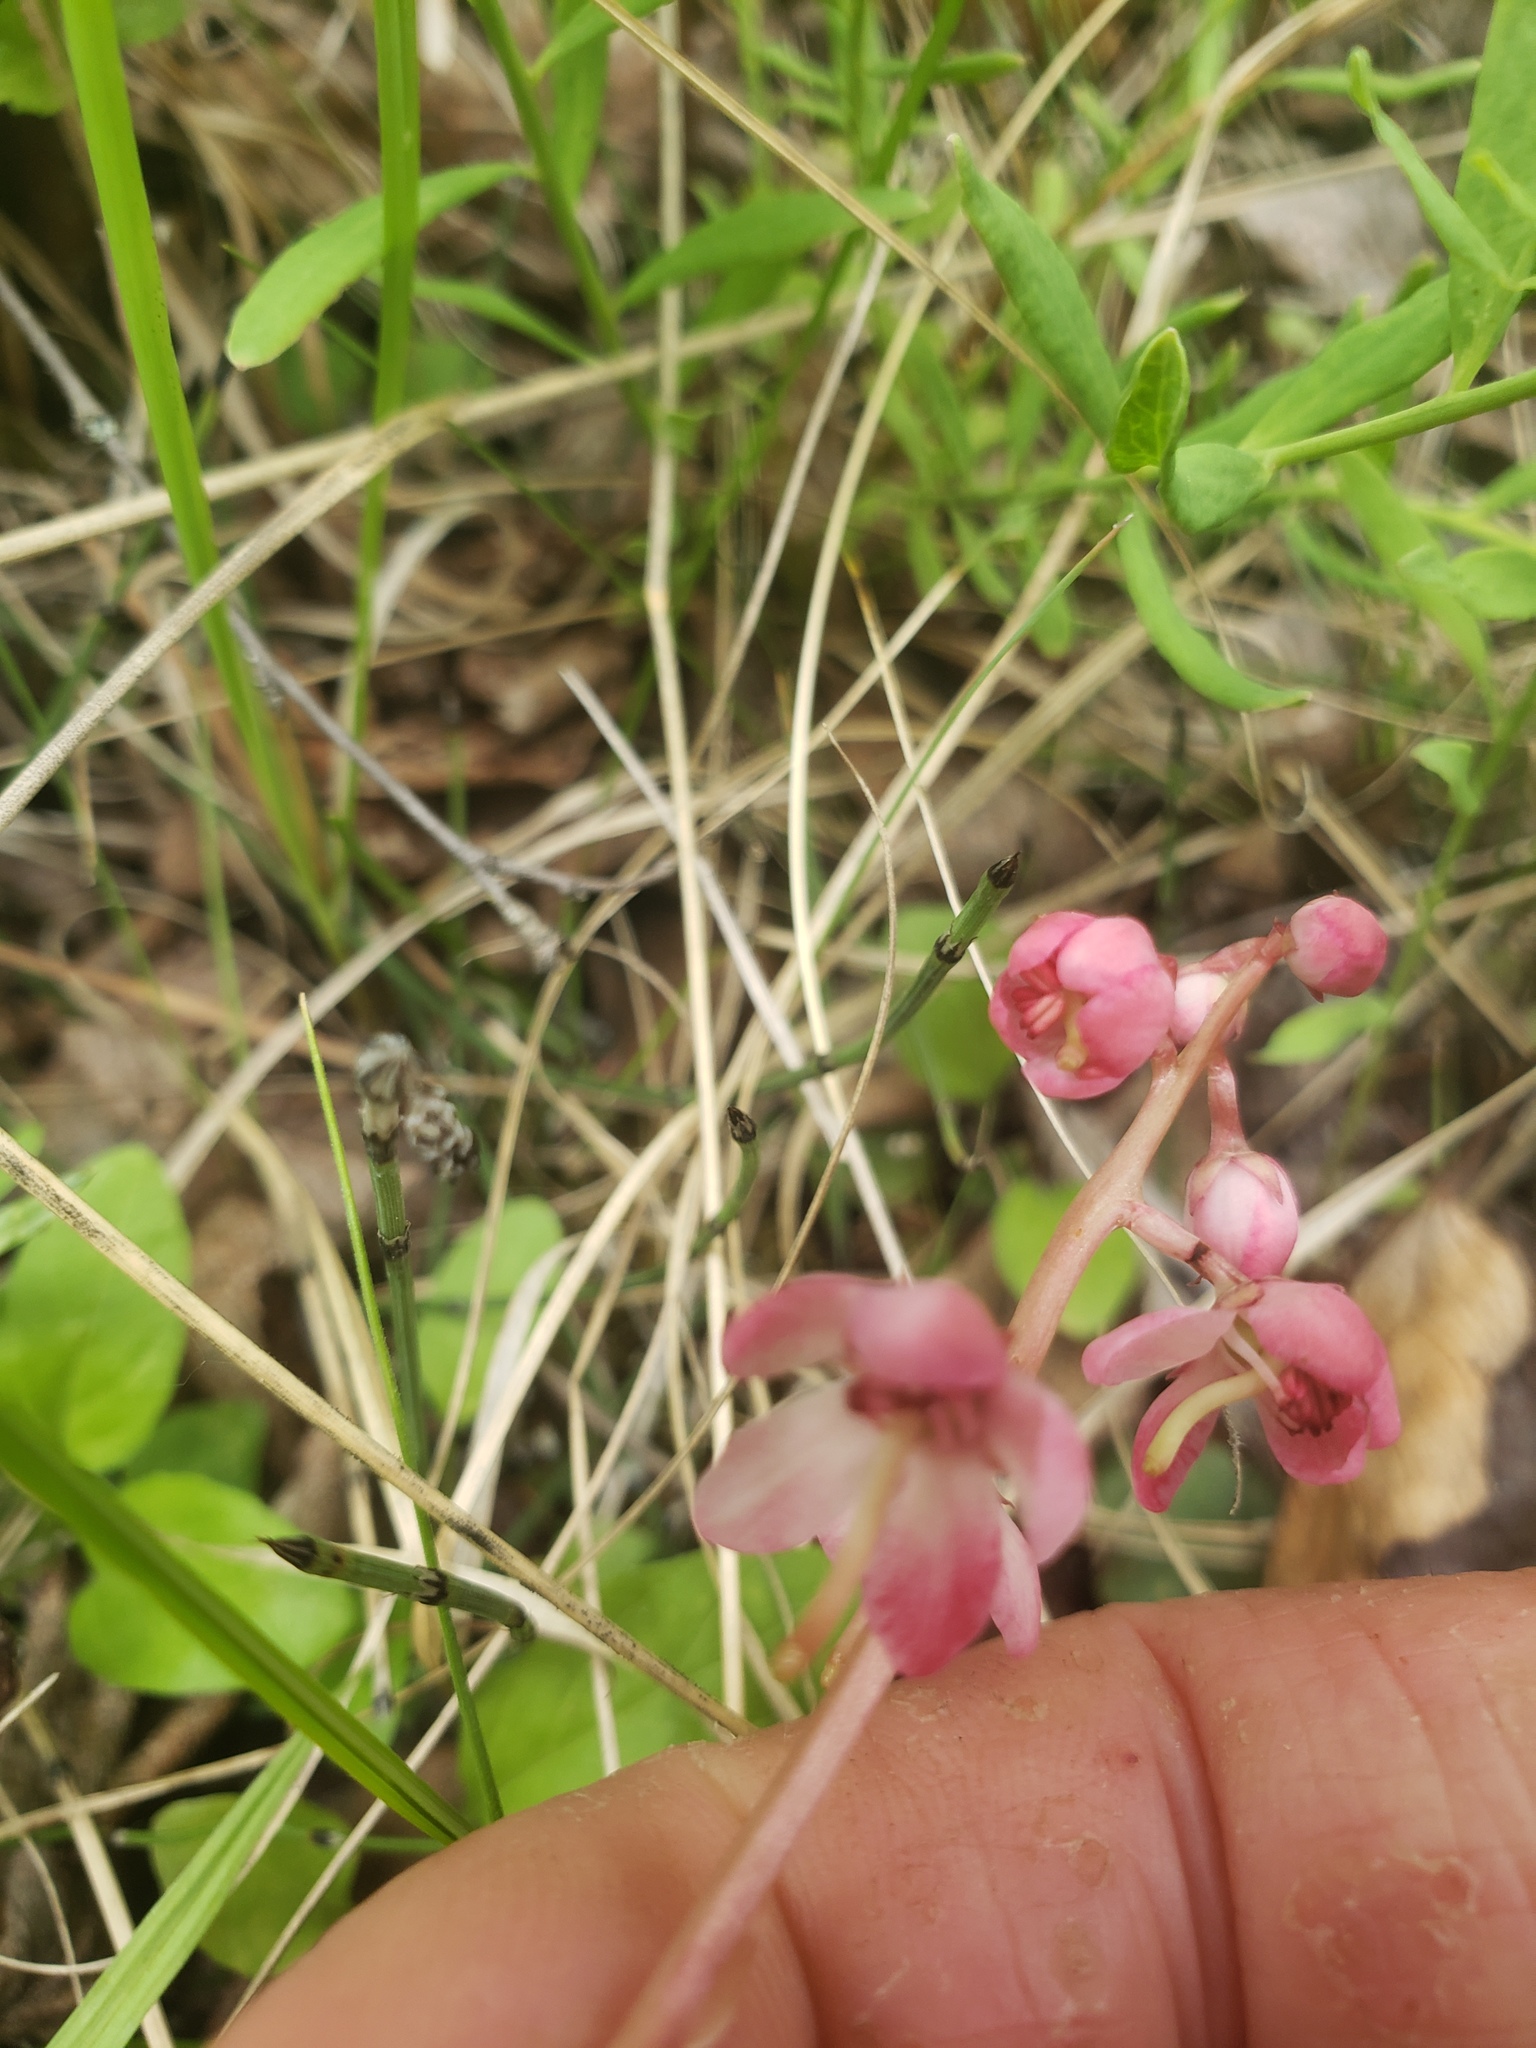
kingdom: Plantae
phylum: Tracheophyta
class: Magnoliopsida
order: Ericales
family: Ericaceae
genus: Pyrola
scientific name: Pyrola asarifolia
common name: Bog wintergreen
